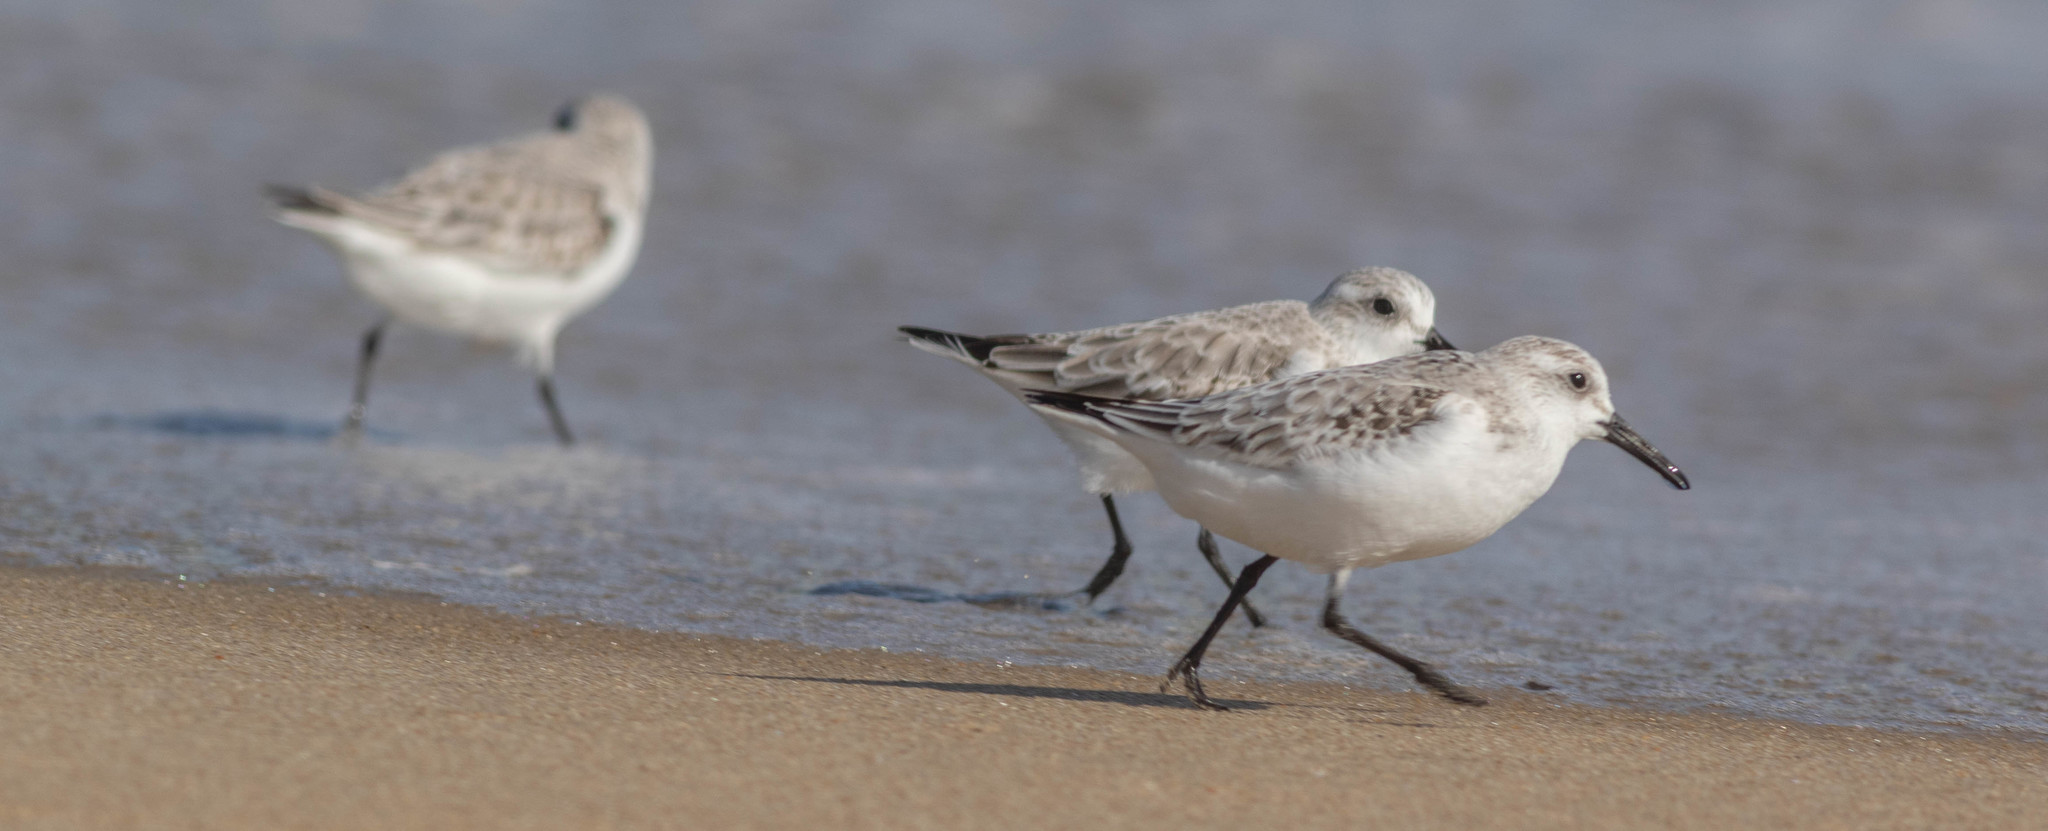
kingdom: Animalia
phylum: Chordata
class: Aves
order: Charadriiformes
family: Scolopacidae
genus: Calidris
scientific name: Calidris alba
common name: Sanderling
